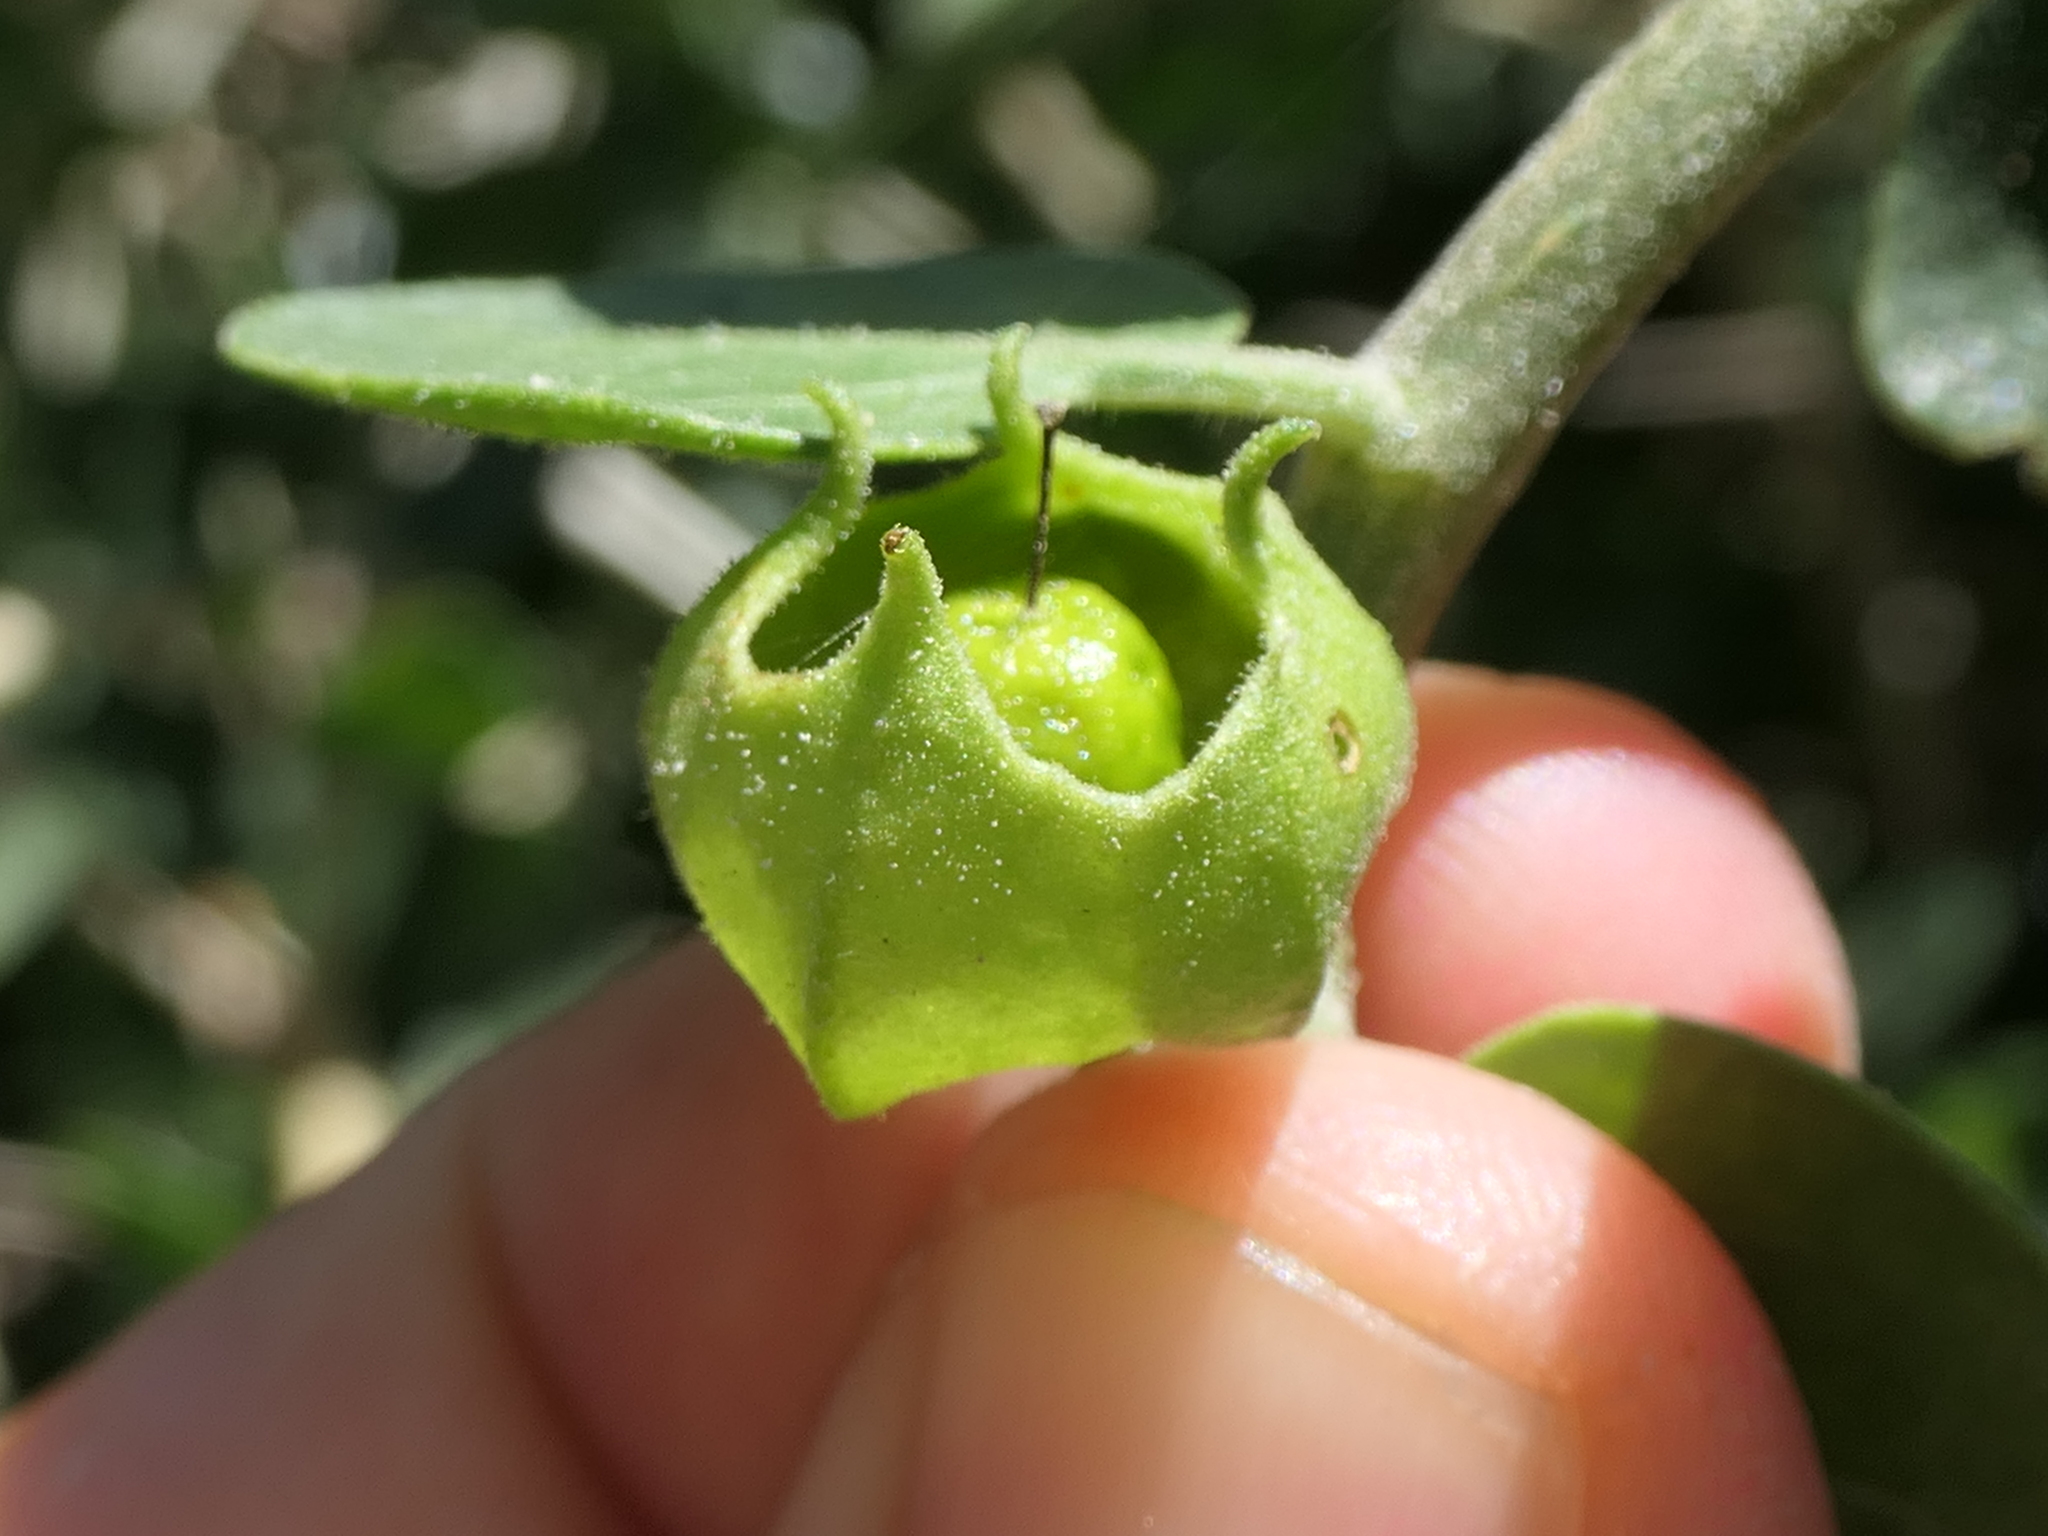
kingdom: Plantae
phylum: Tracheophyta
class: Magnoliopsida
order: Solanales
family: Solanaceae
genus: Withania
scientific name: Withania frutescens
